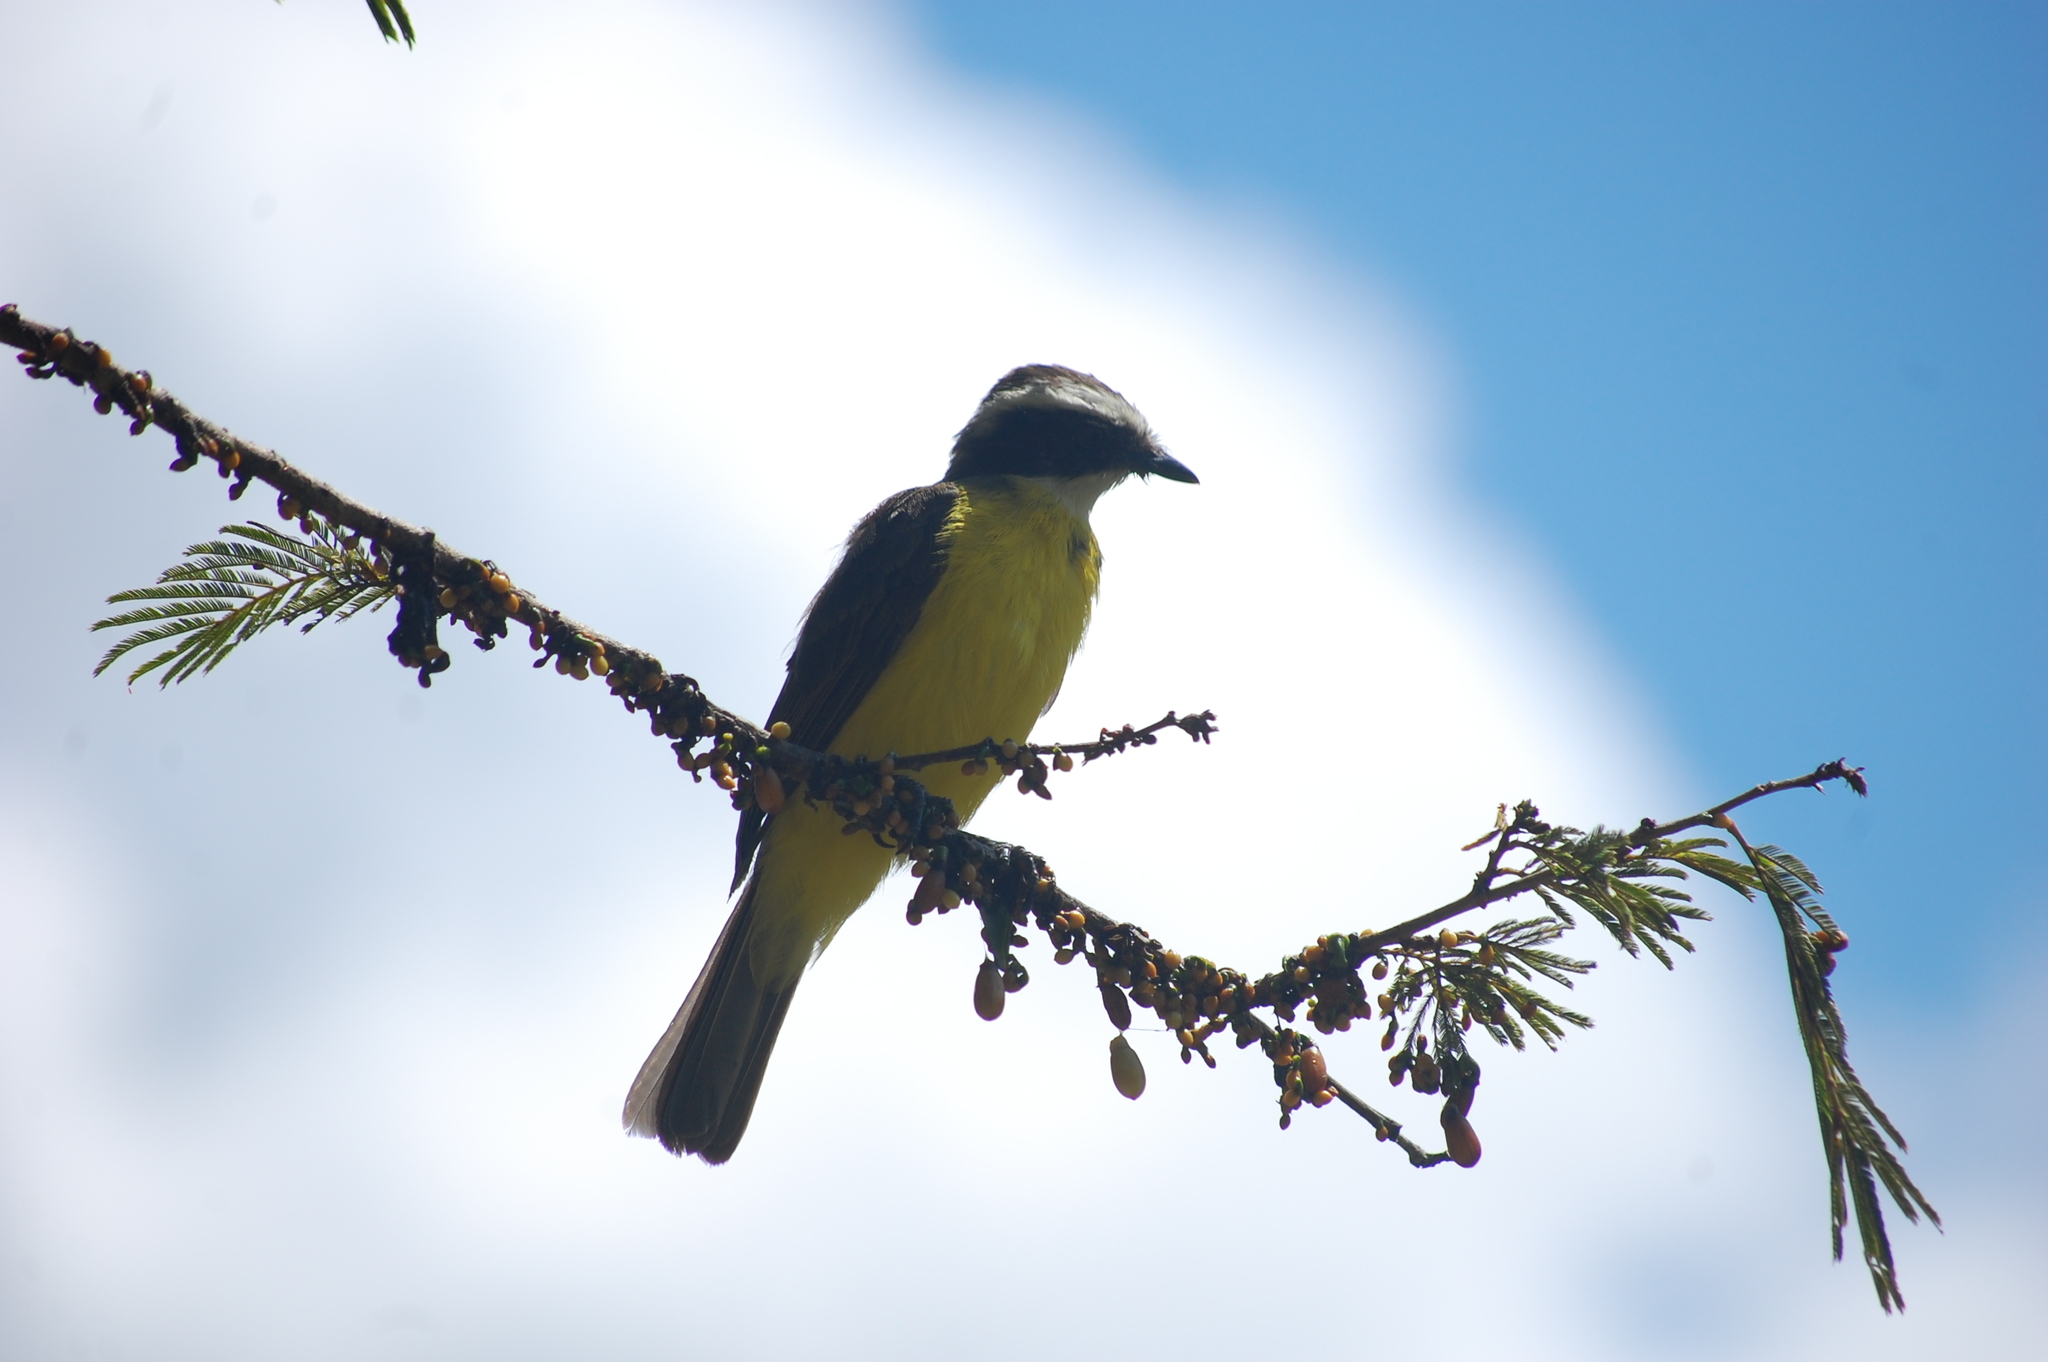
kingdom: Animalia
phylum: Chordata
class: Aves
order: Passeriformes
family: Tyrannidae
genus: Pitangus
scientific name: Pitangus sulphuratus
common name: Great kiskadee
